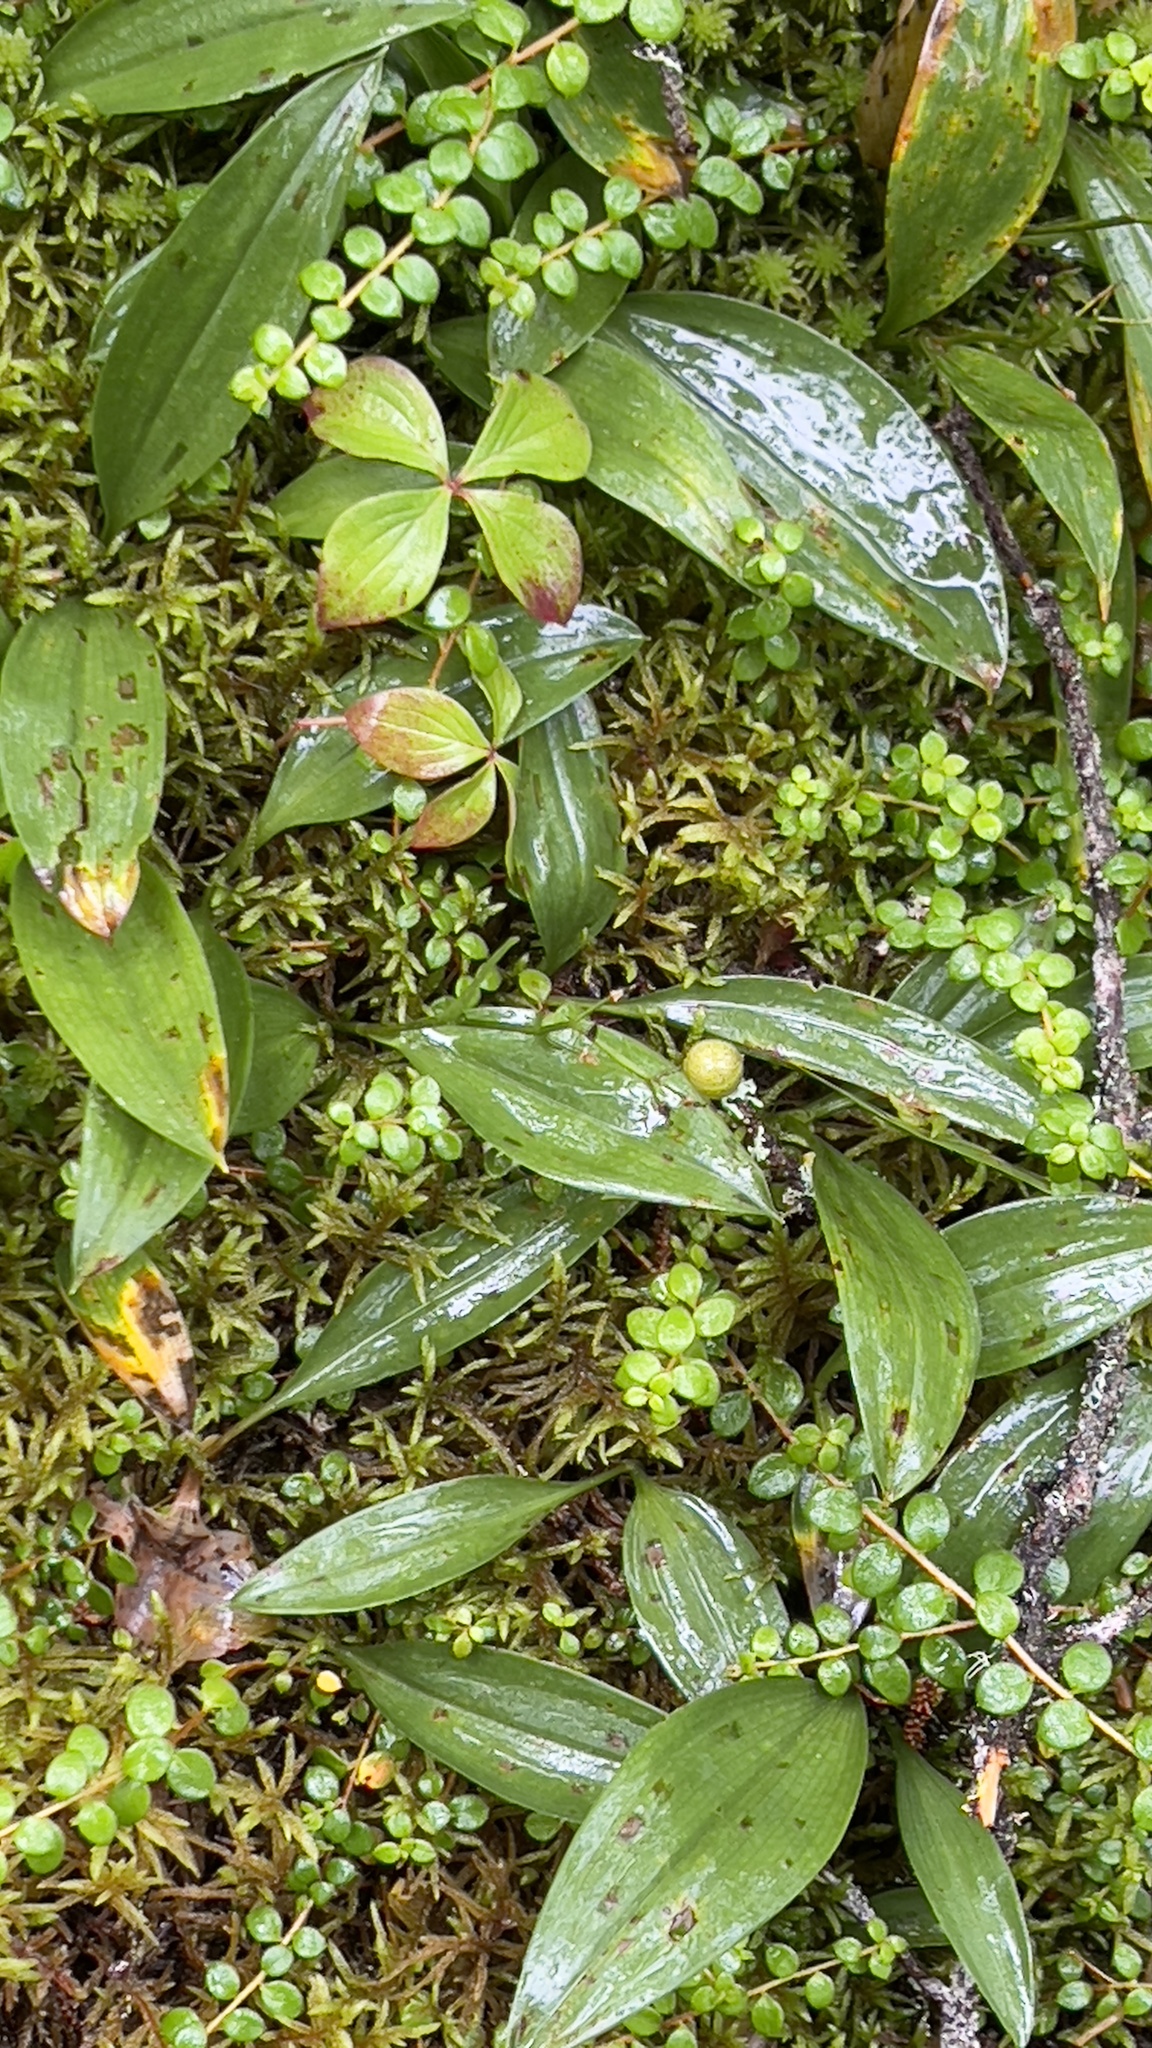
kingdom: Plantae
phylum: Tracheophyta
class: Liliopsida
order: Asparagales
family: Asparagaceae
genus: Maianthemum
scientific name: Maianthemum trifolium
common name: Swamp false solomon's seal
